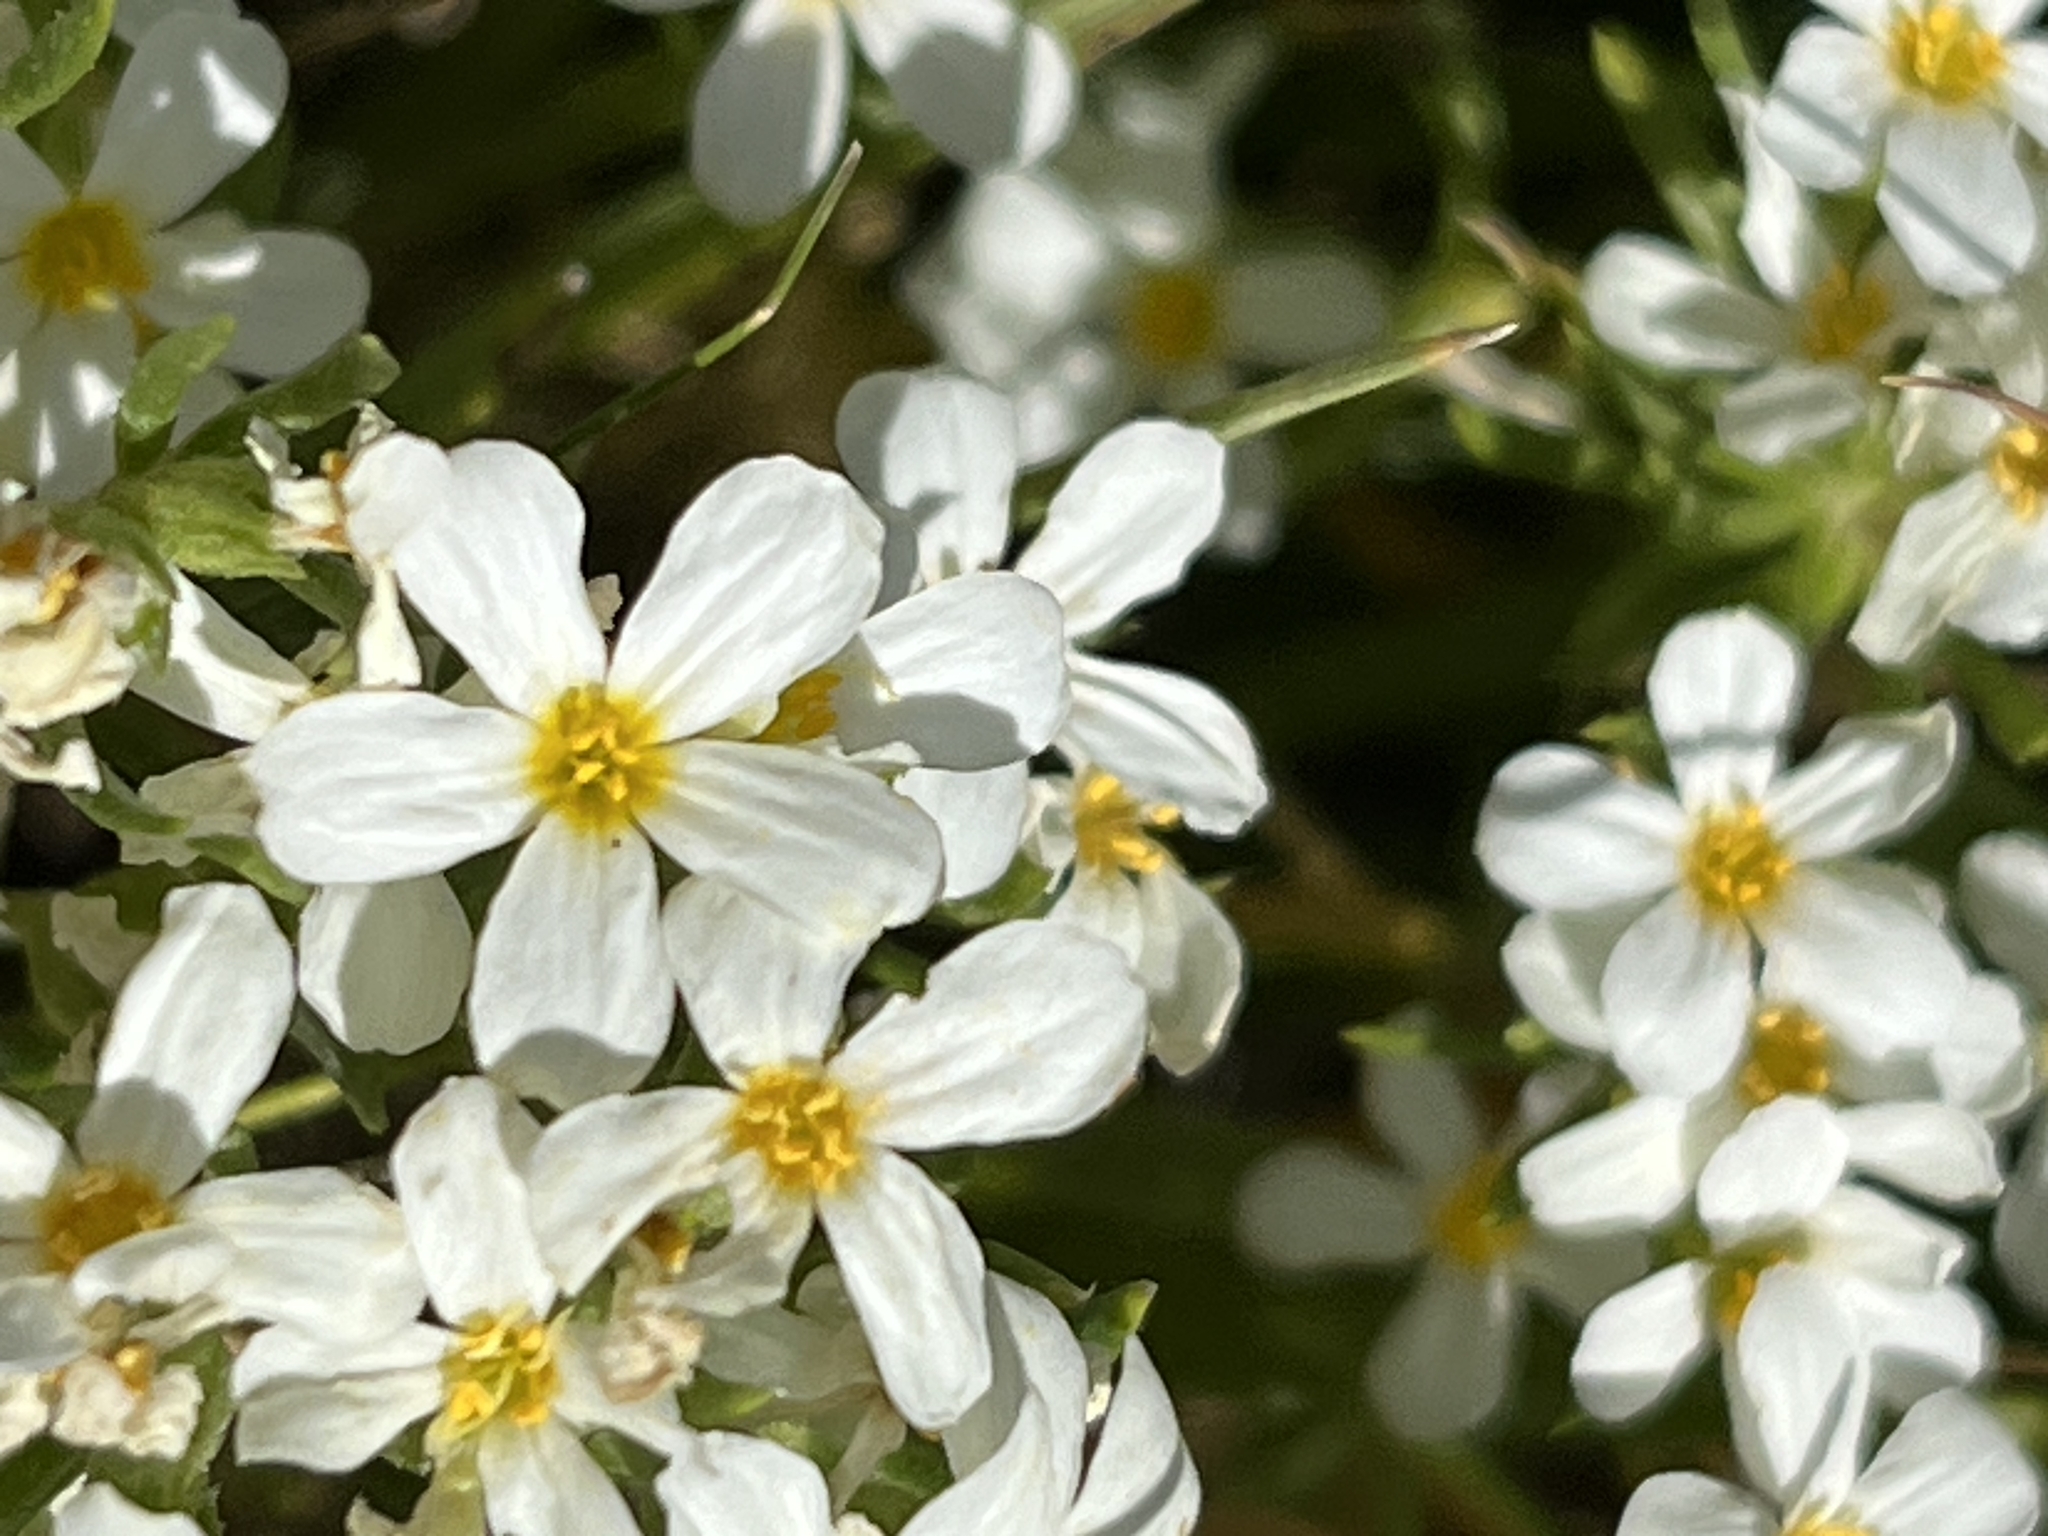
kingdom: Plantae
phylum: Tracheophyta
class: Magnoliopsida
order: Ericales
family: Polemoniaceae
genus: Leptosiphon
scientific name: Leptosiphon nuttallii
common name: Nuttall's linanthus
